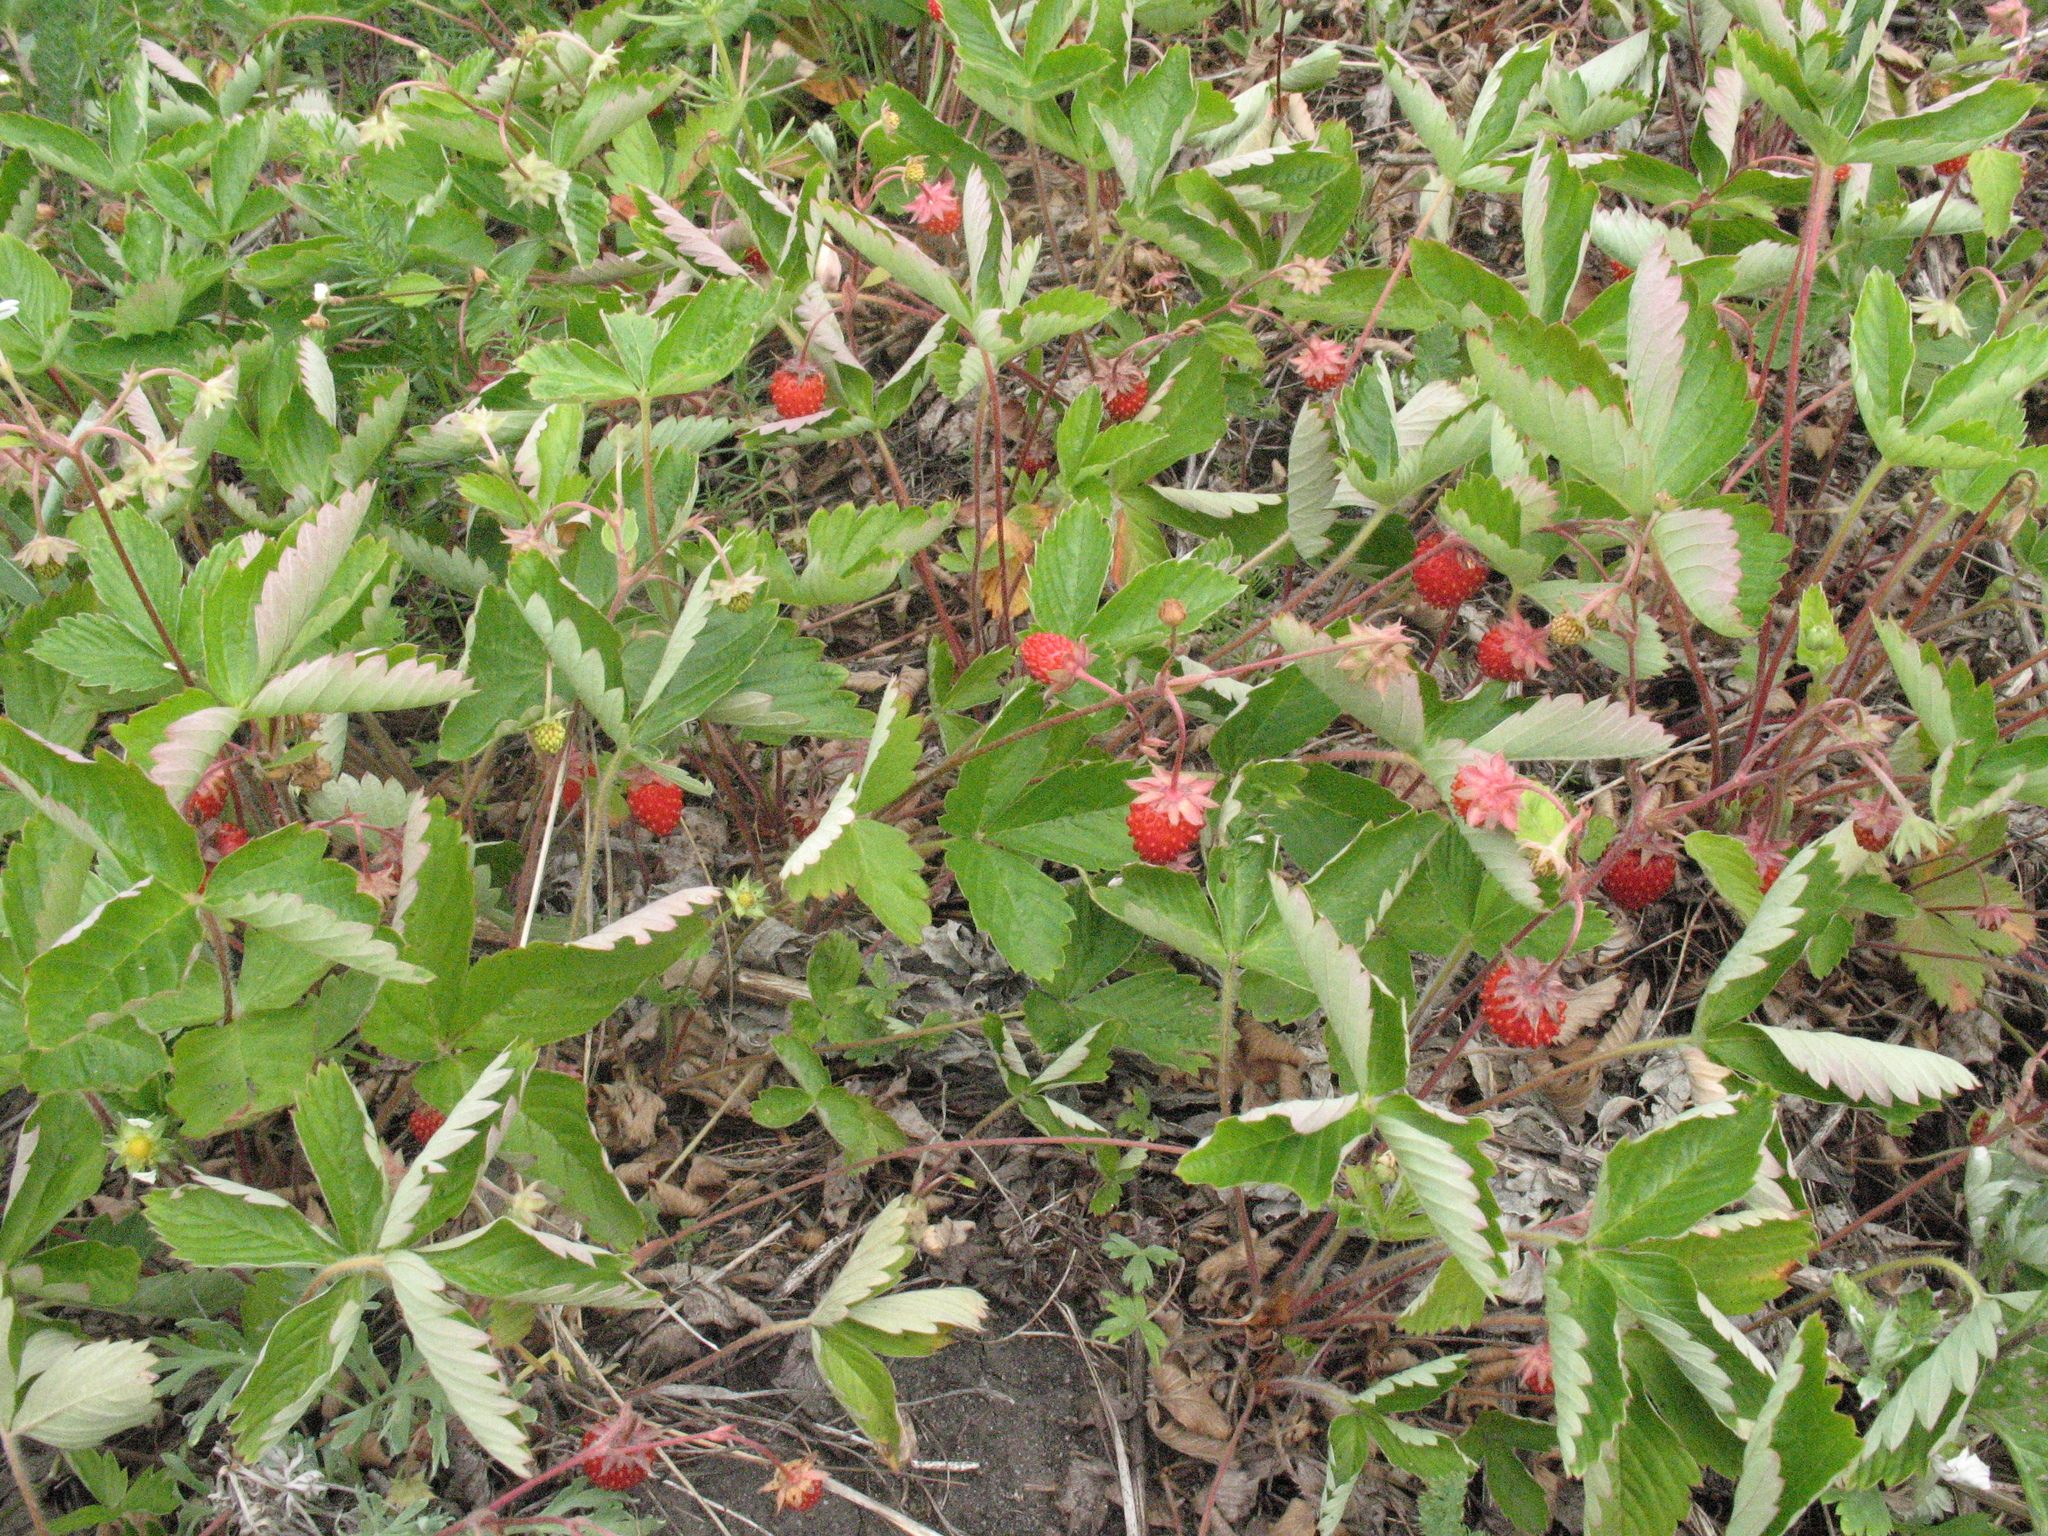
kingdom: Plantae
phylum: Tracheophyta
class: Magnoliopsida
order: Rosales
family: Rosaceae
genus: Fragaria
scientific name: Fragaria vesca
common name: Wild strawberry
